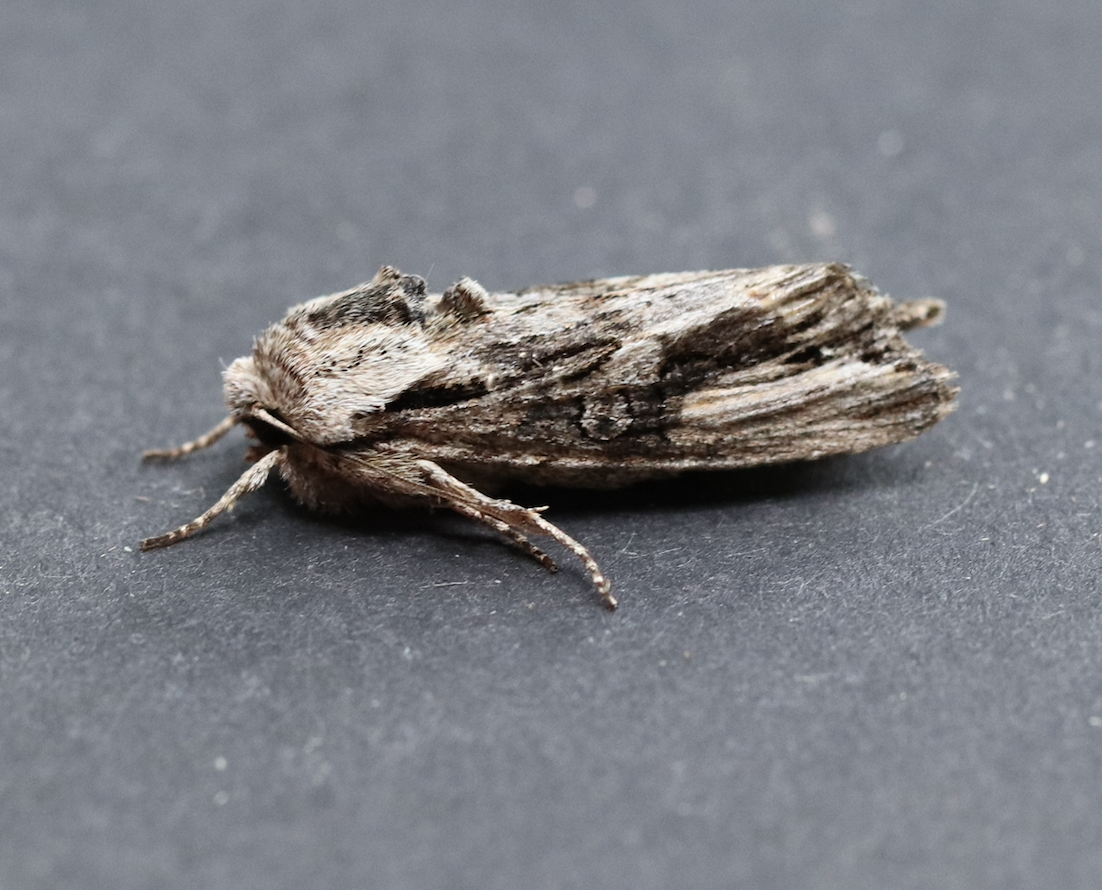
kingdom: Animalia
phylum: Arthropoda
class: Insecta
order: Lepidoptera
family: Noctuidae
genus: Egira
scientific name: Egira conspicillaris
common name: Silver cloud
